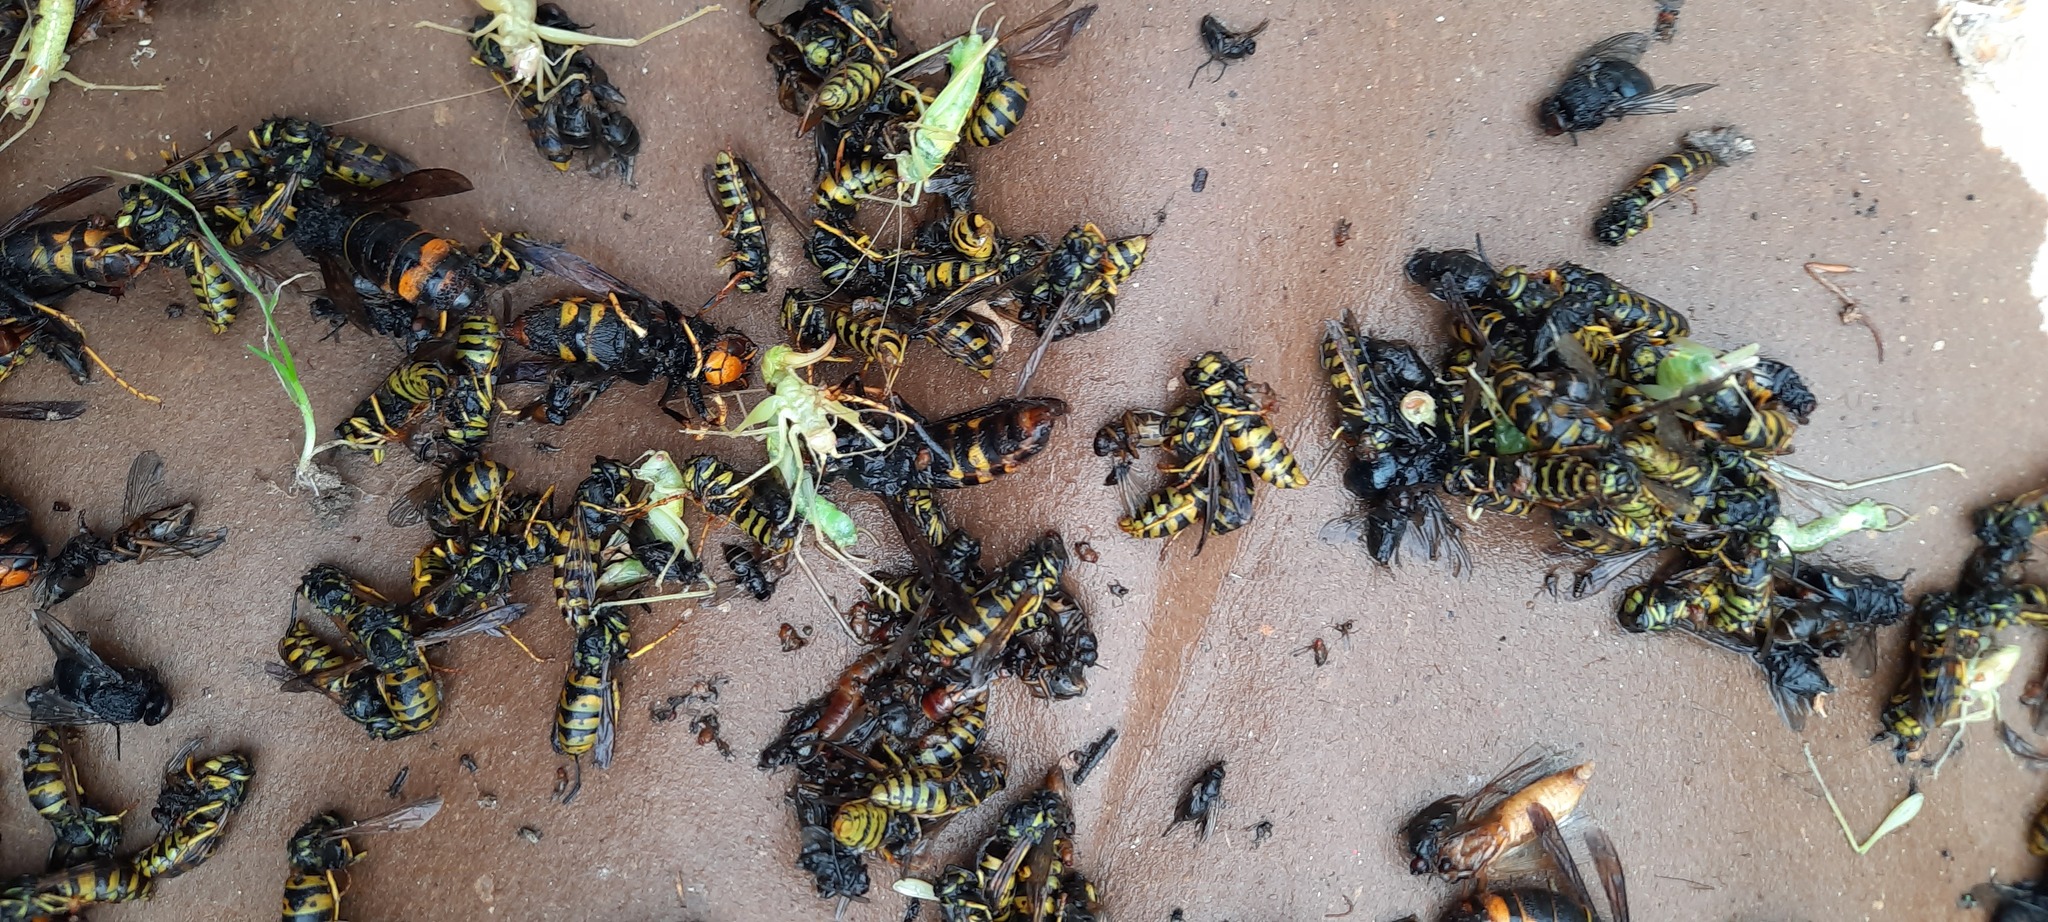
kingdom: Animalia
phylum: Arthropoda
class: Insecta
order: Hymenoptera
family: Vespidae
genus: Vespa
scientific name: Vespa velutina
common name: Asian hornet
